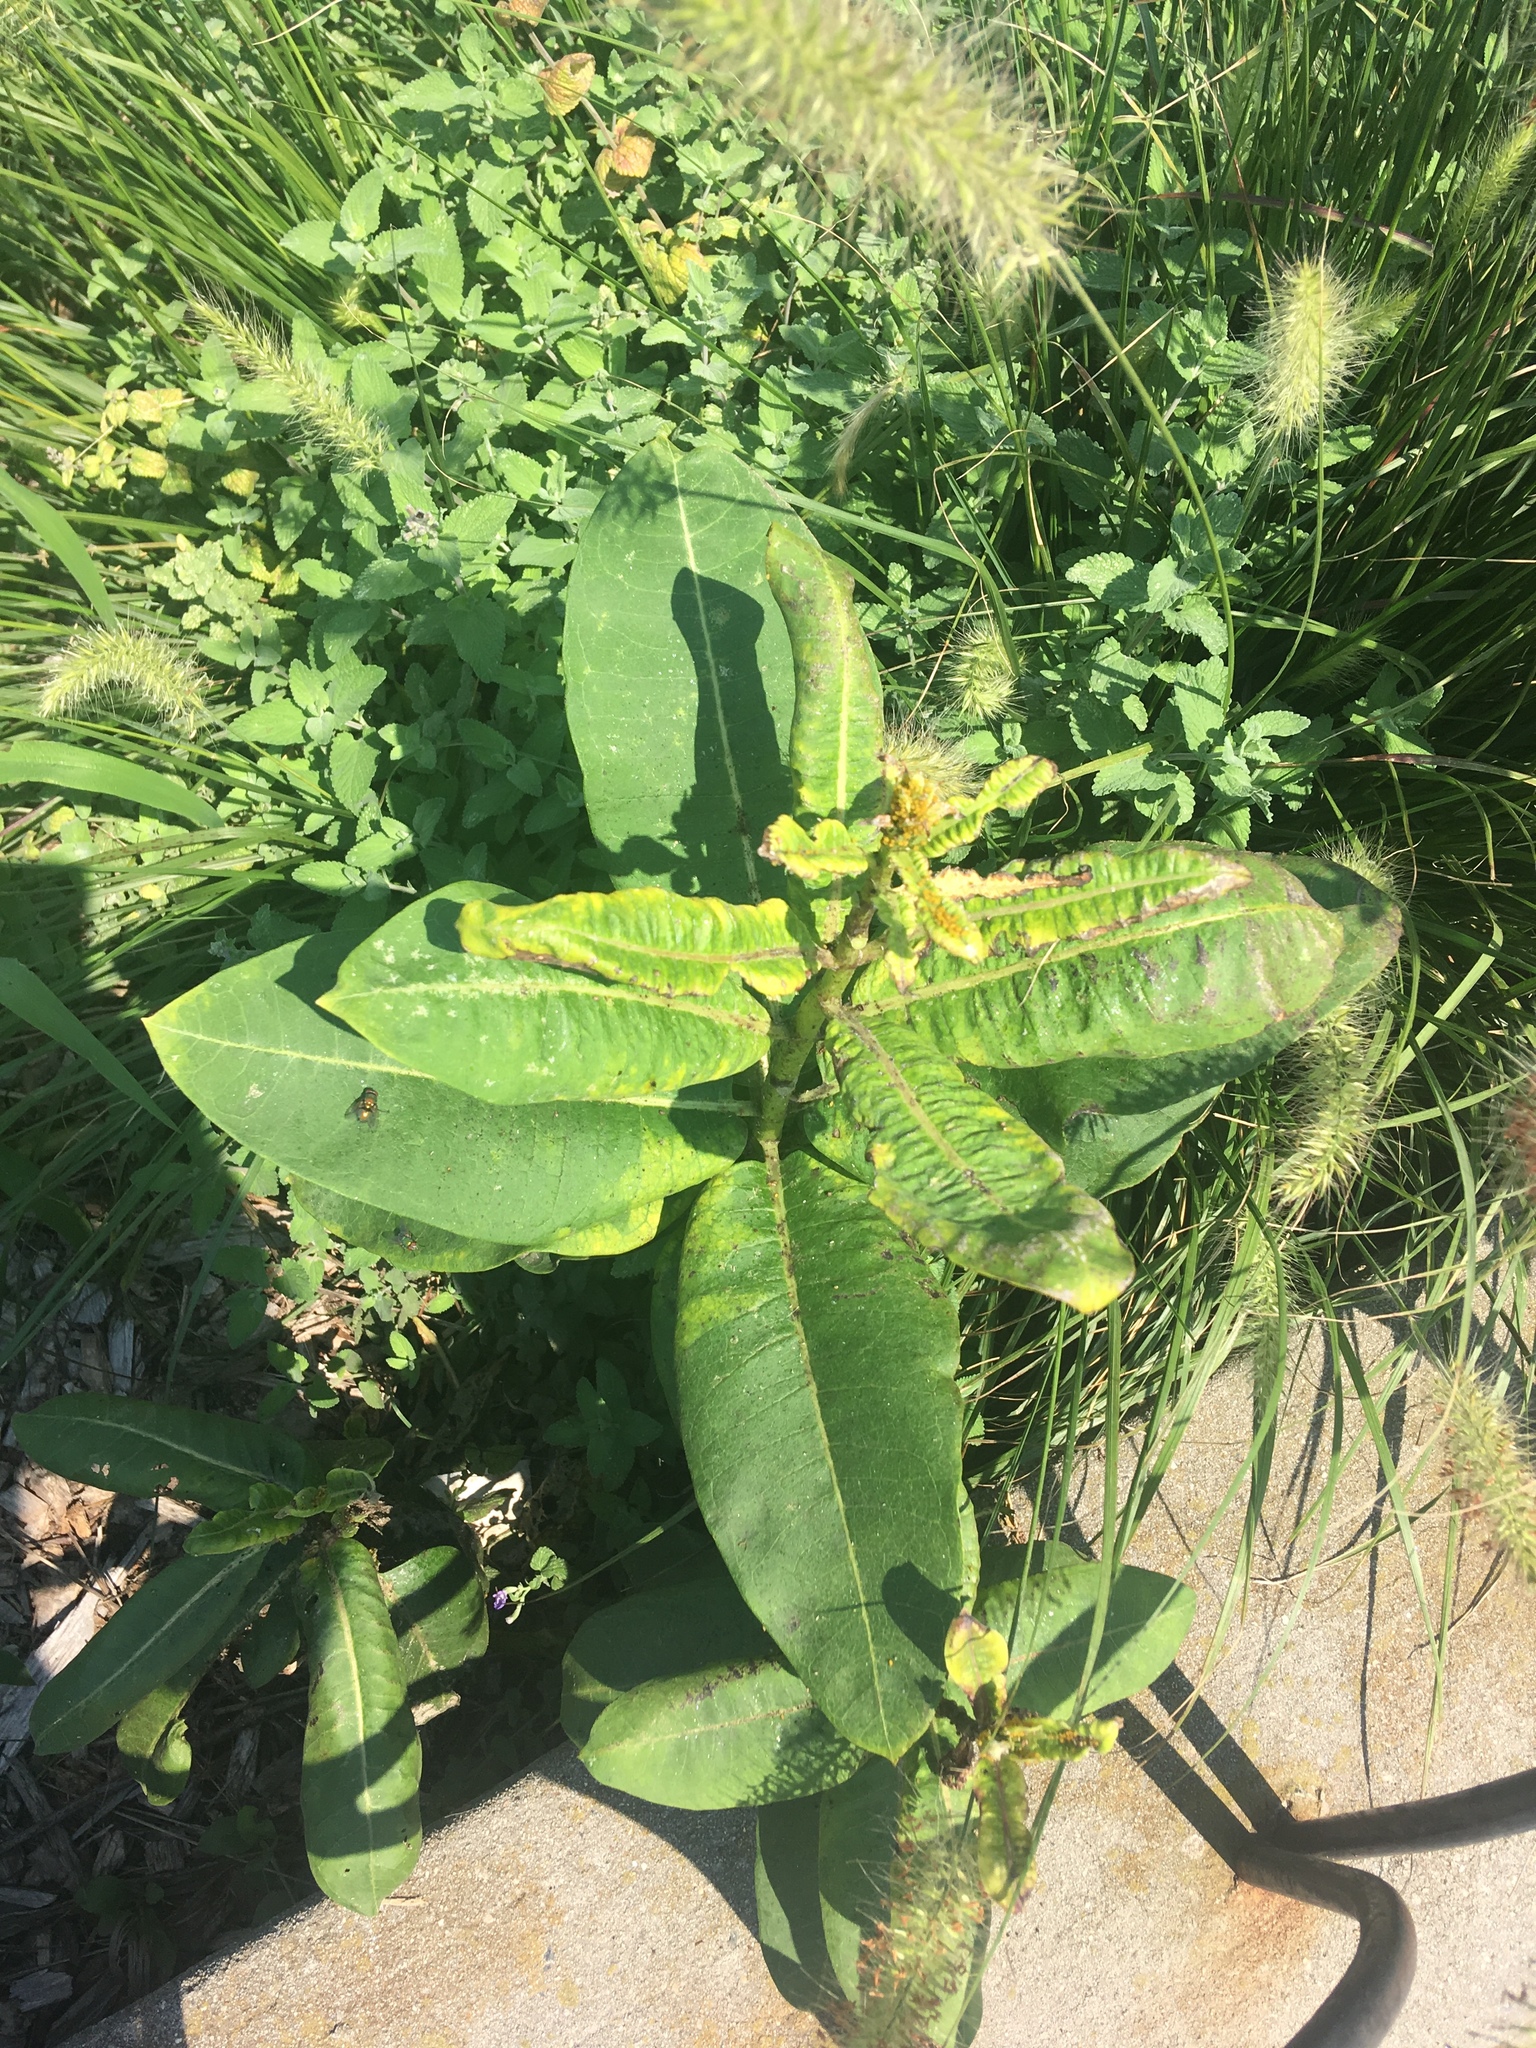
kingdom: Plantae
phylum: Tracheophyta
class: Magnoliopsida
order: Gentianales
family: Apocynaceae
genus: Asclepias
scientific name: Asclepias syriaca
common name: Common milkweed
